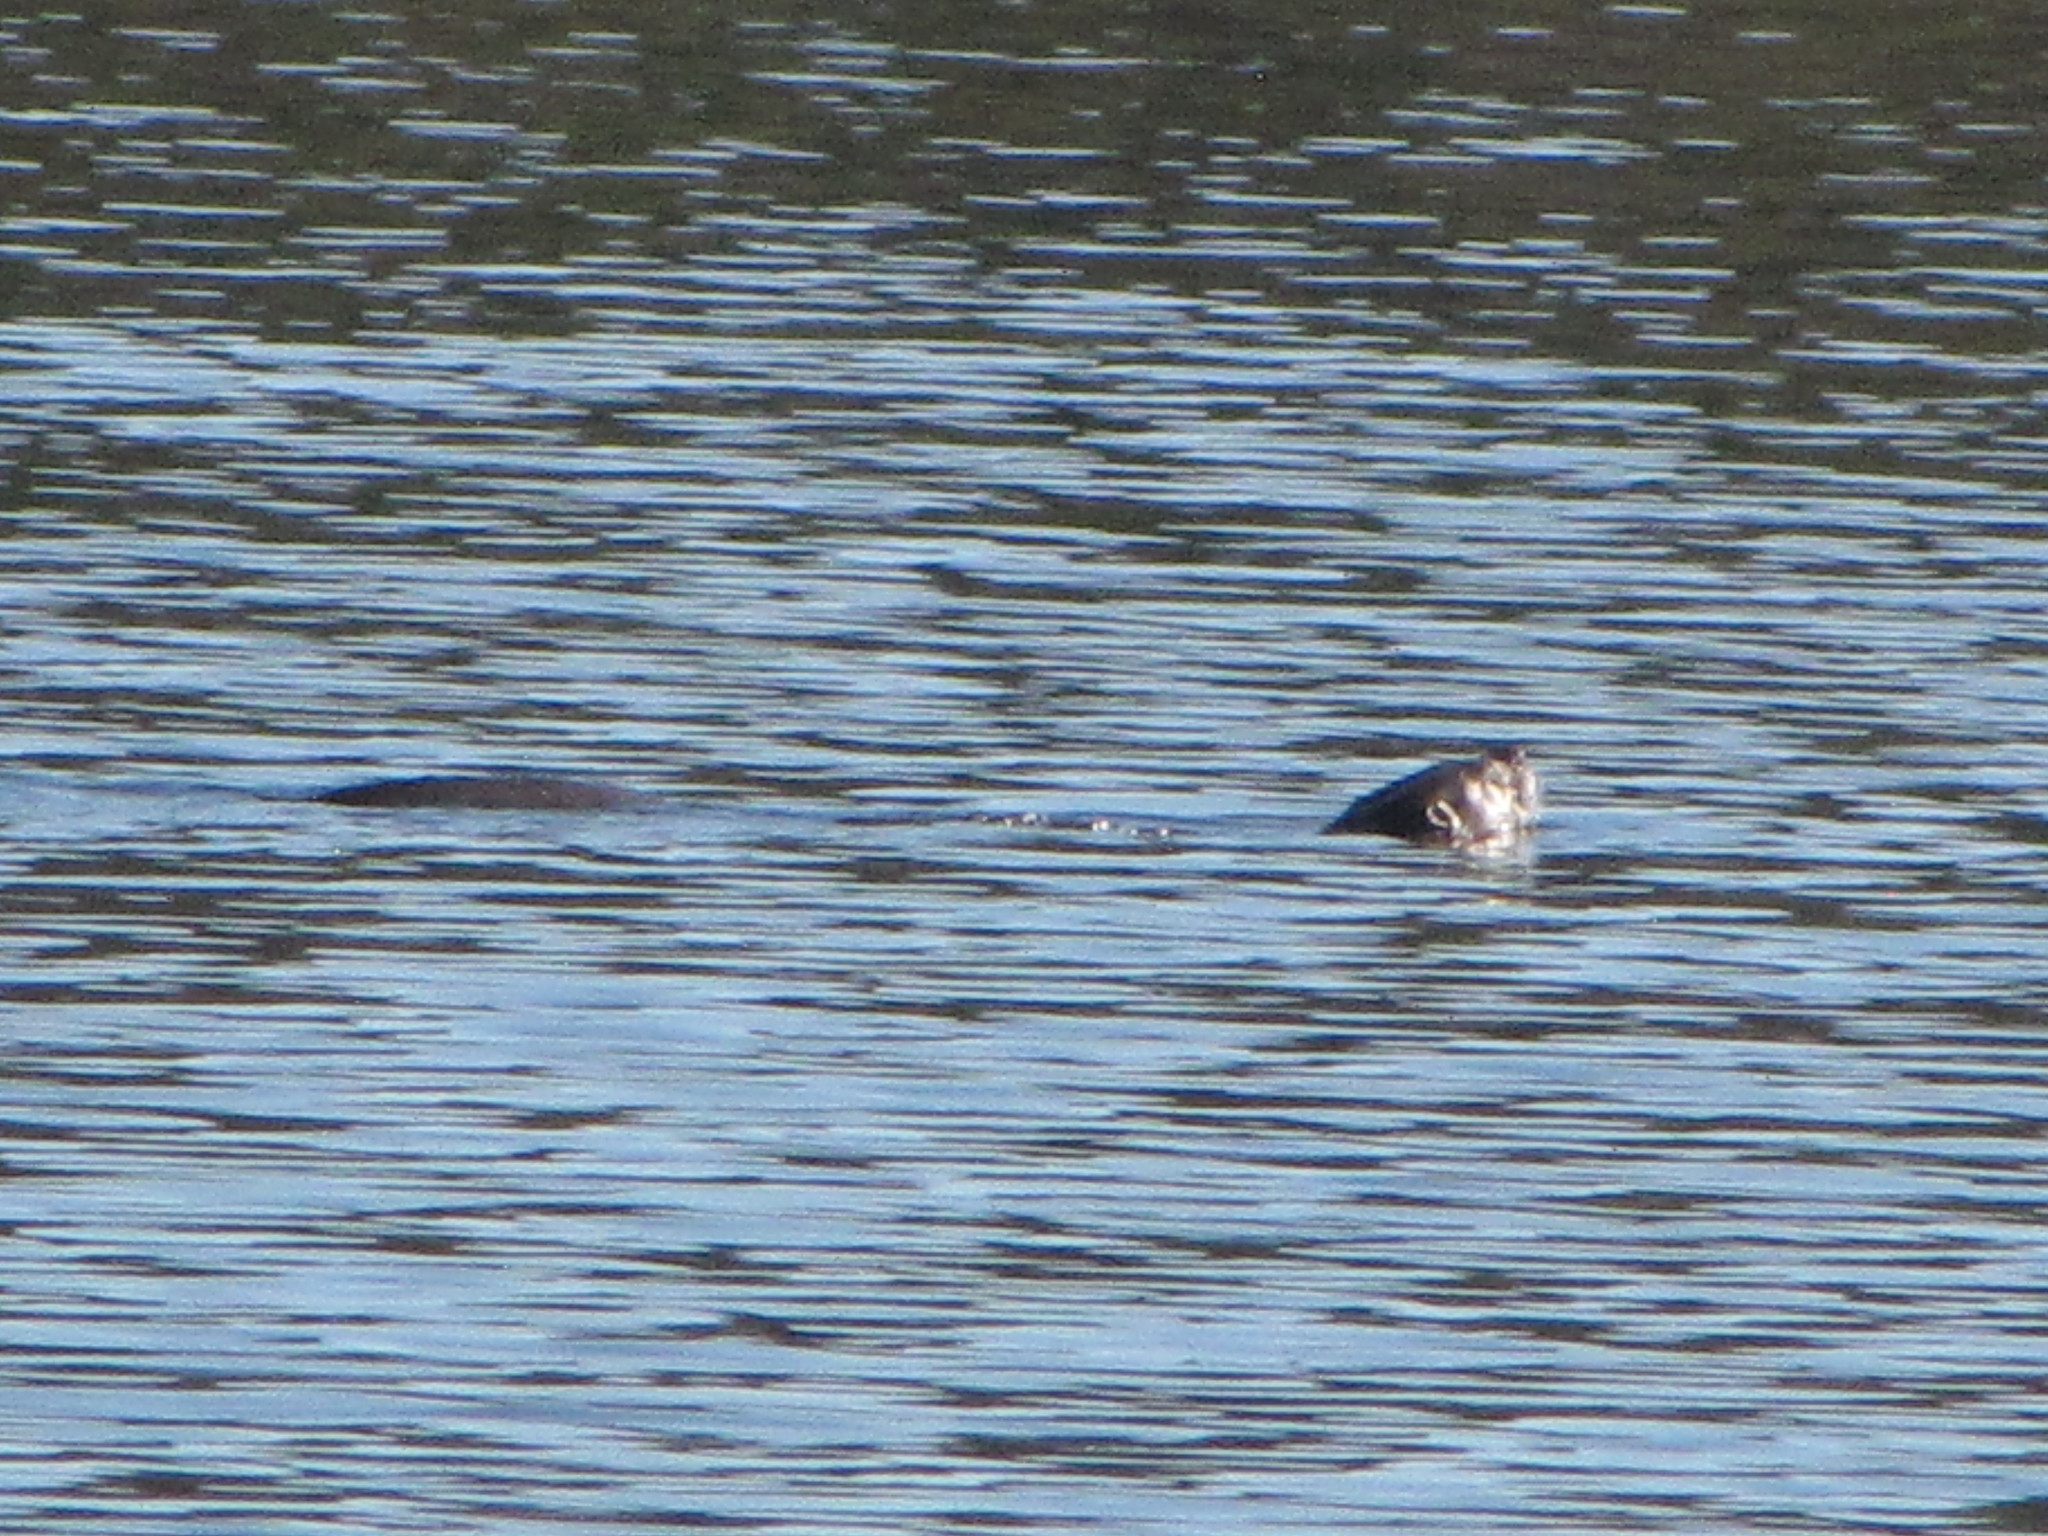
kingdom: Animalia
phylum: Chordata
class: Mammalia
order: Carnivora
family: Mustelidae
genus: Lontra
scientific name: Lontra canadensis
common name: North american river otter
